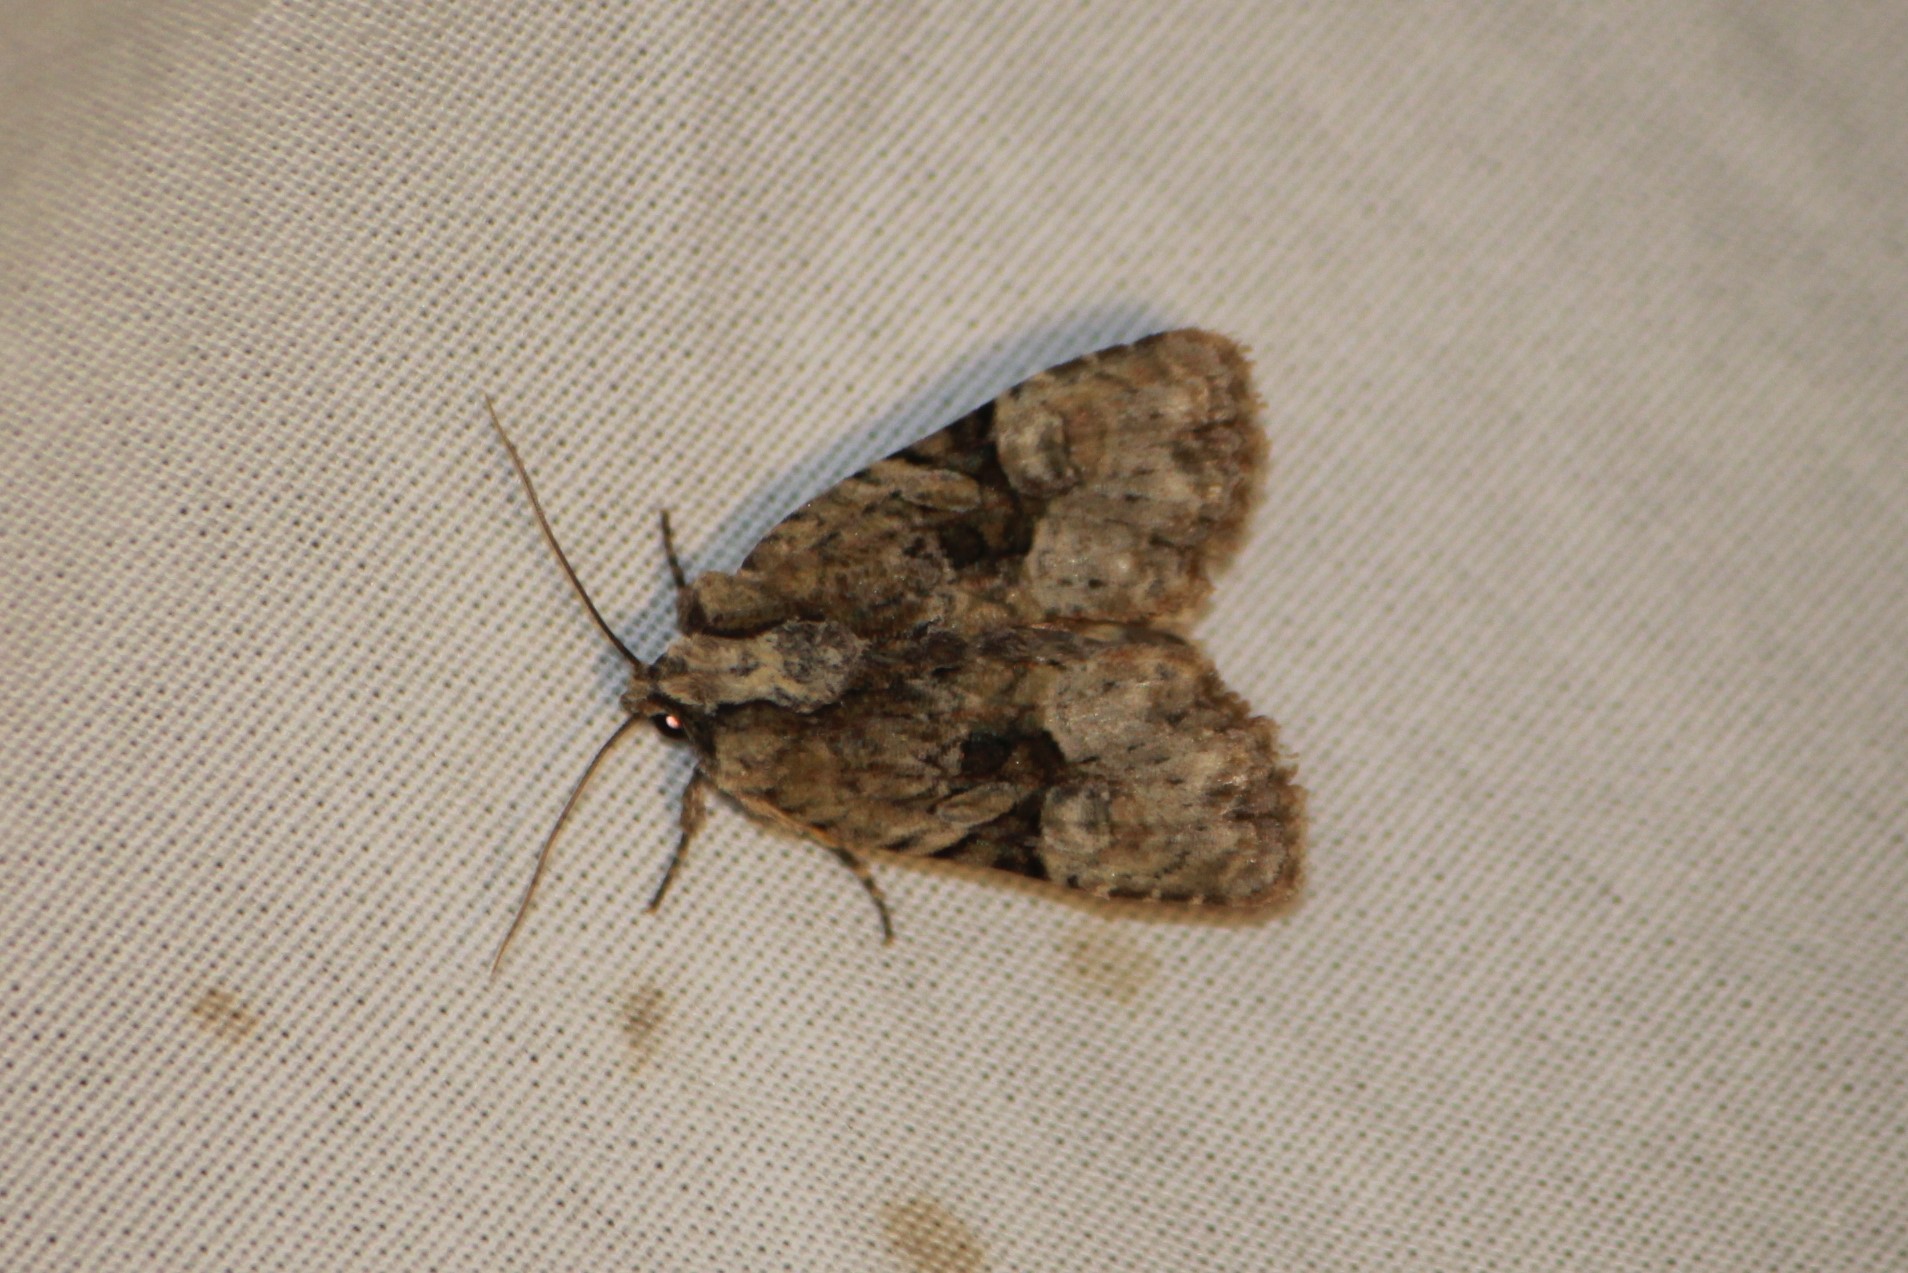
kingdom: Animalia
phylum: Arthropoda
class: Insecta
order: Lepidoptera
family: Noctuidae
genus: Neoligia
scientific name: Neoligia exhausta
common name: Exhausted brocade
